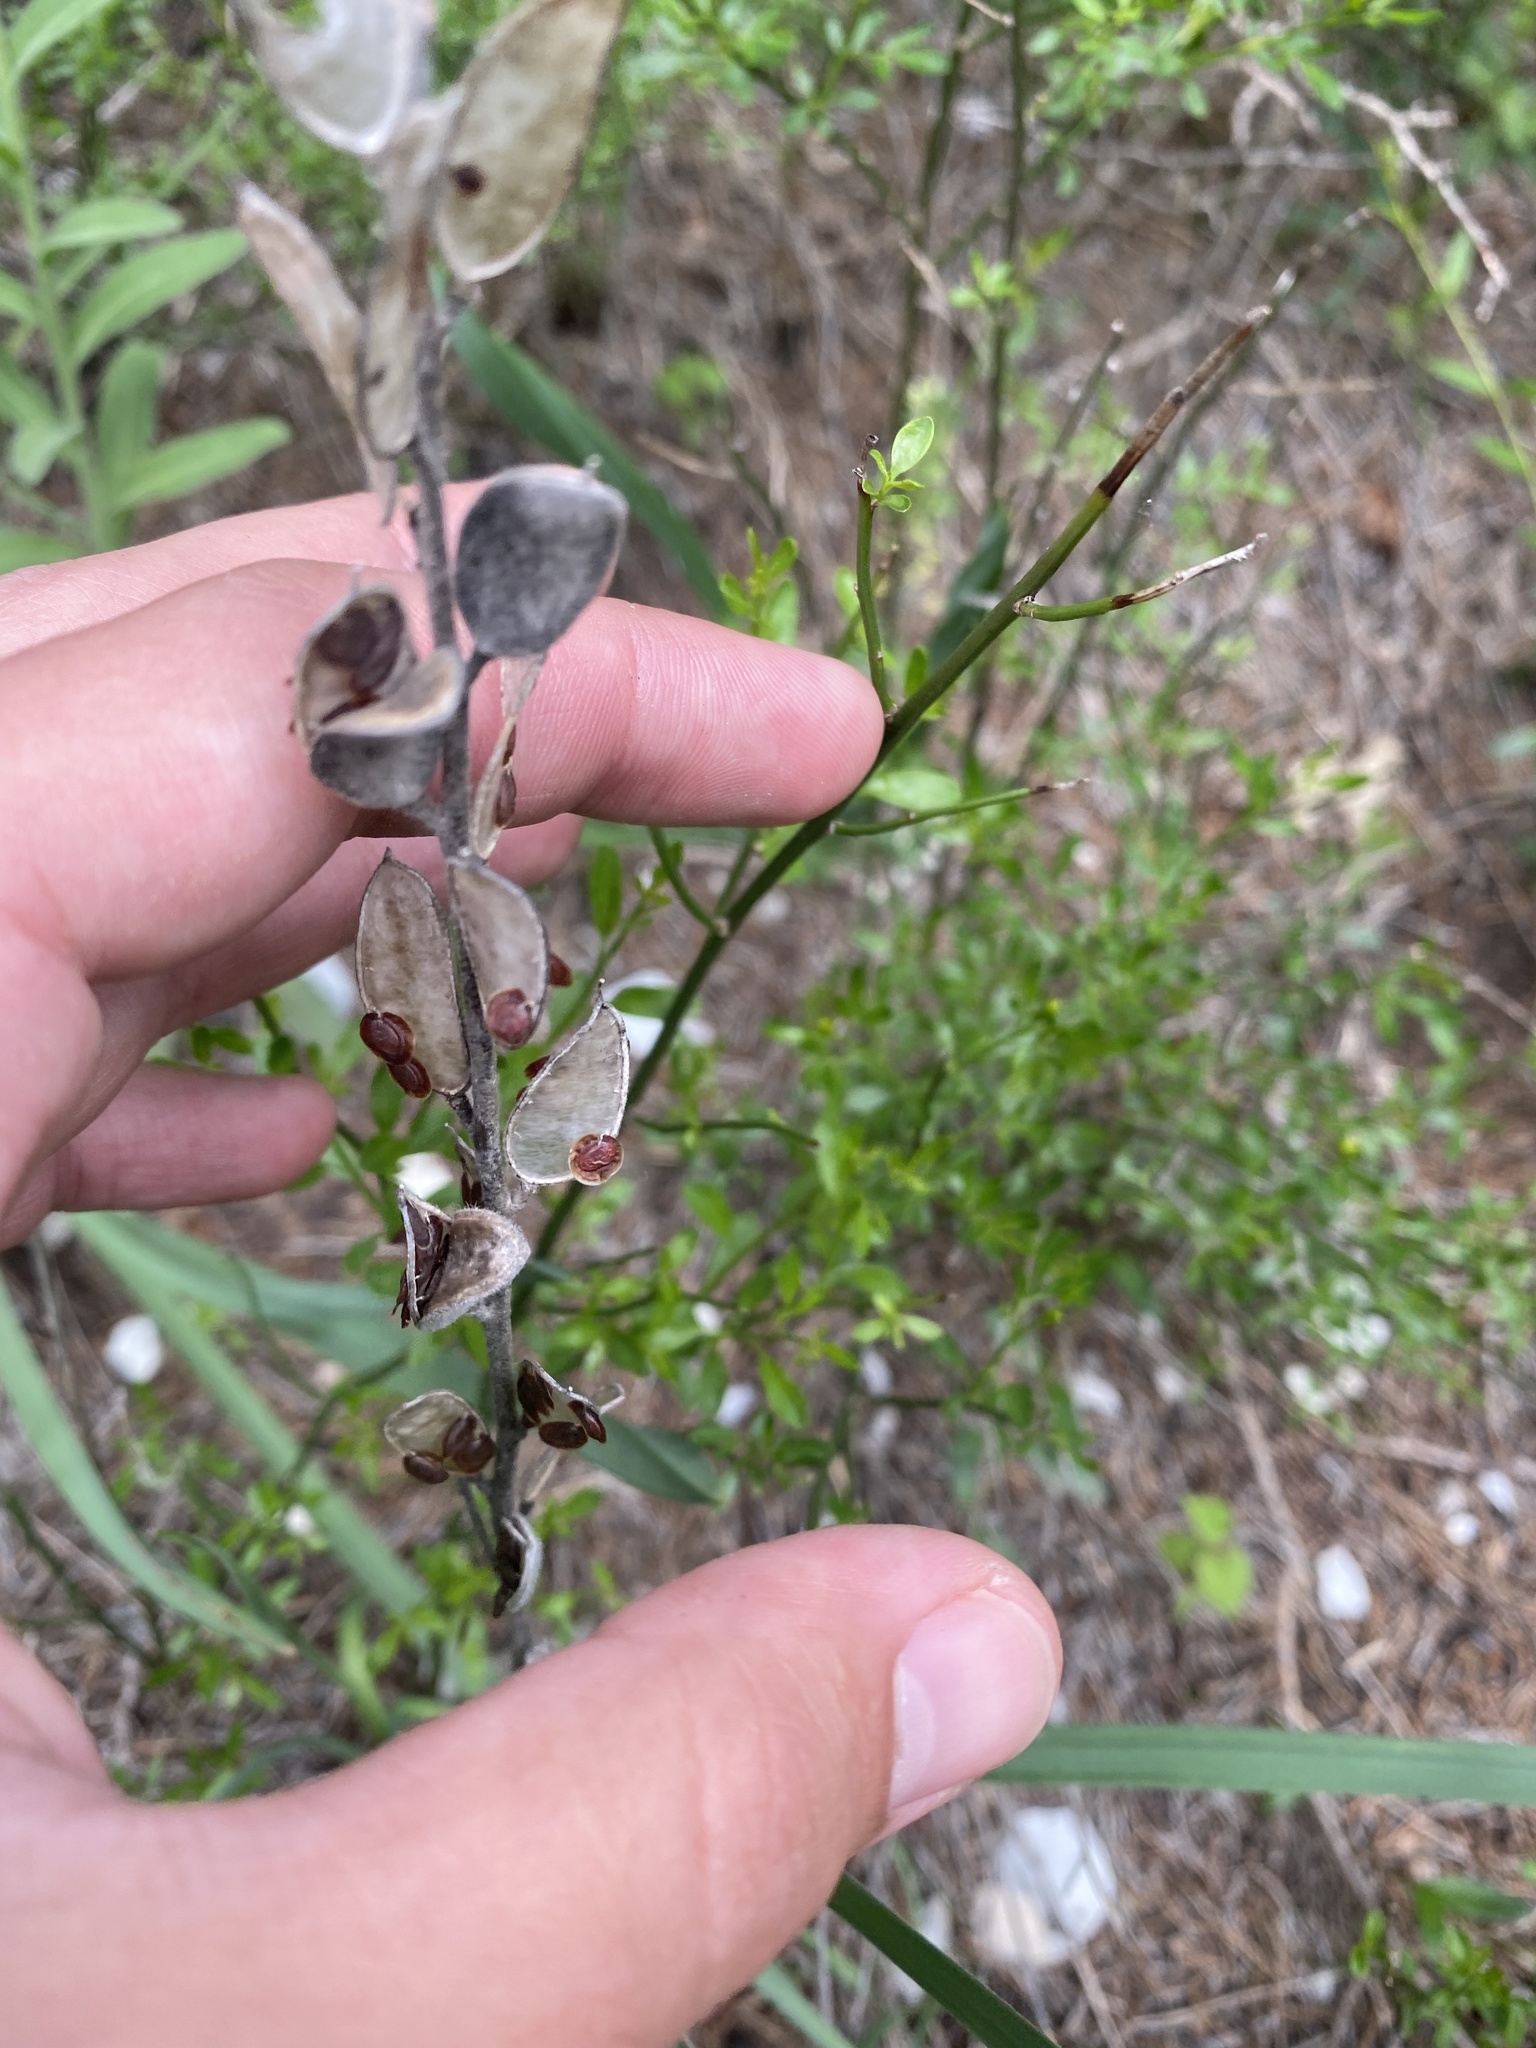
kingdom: Plantae
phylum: Tracheophyta
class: Magnoliopsida
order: Brassicales
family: Brassicaceae
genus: Fibigia
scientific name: Fibigia clypeata
